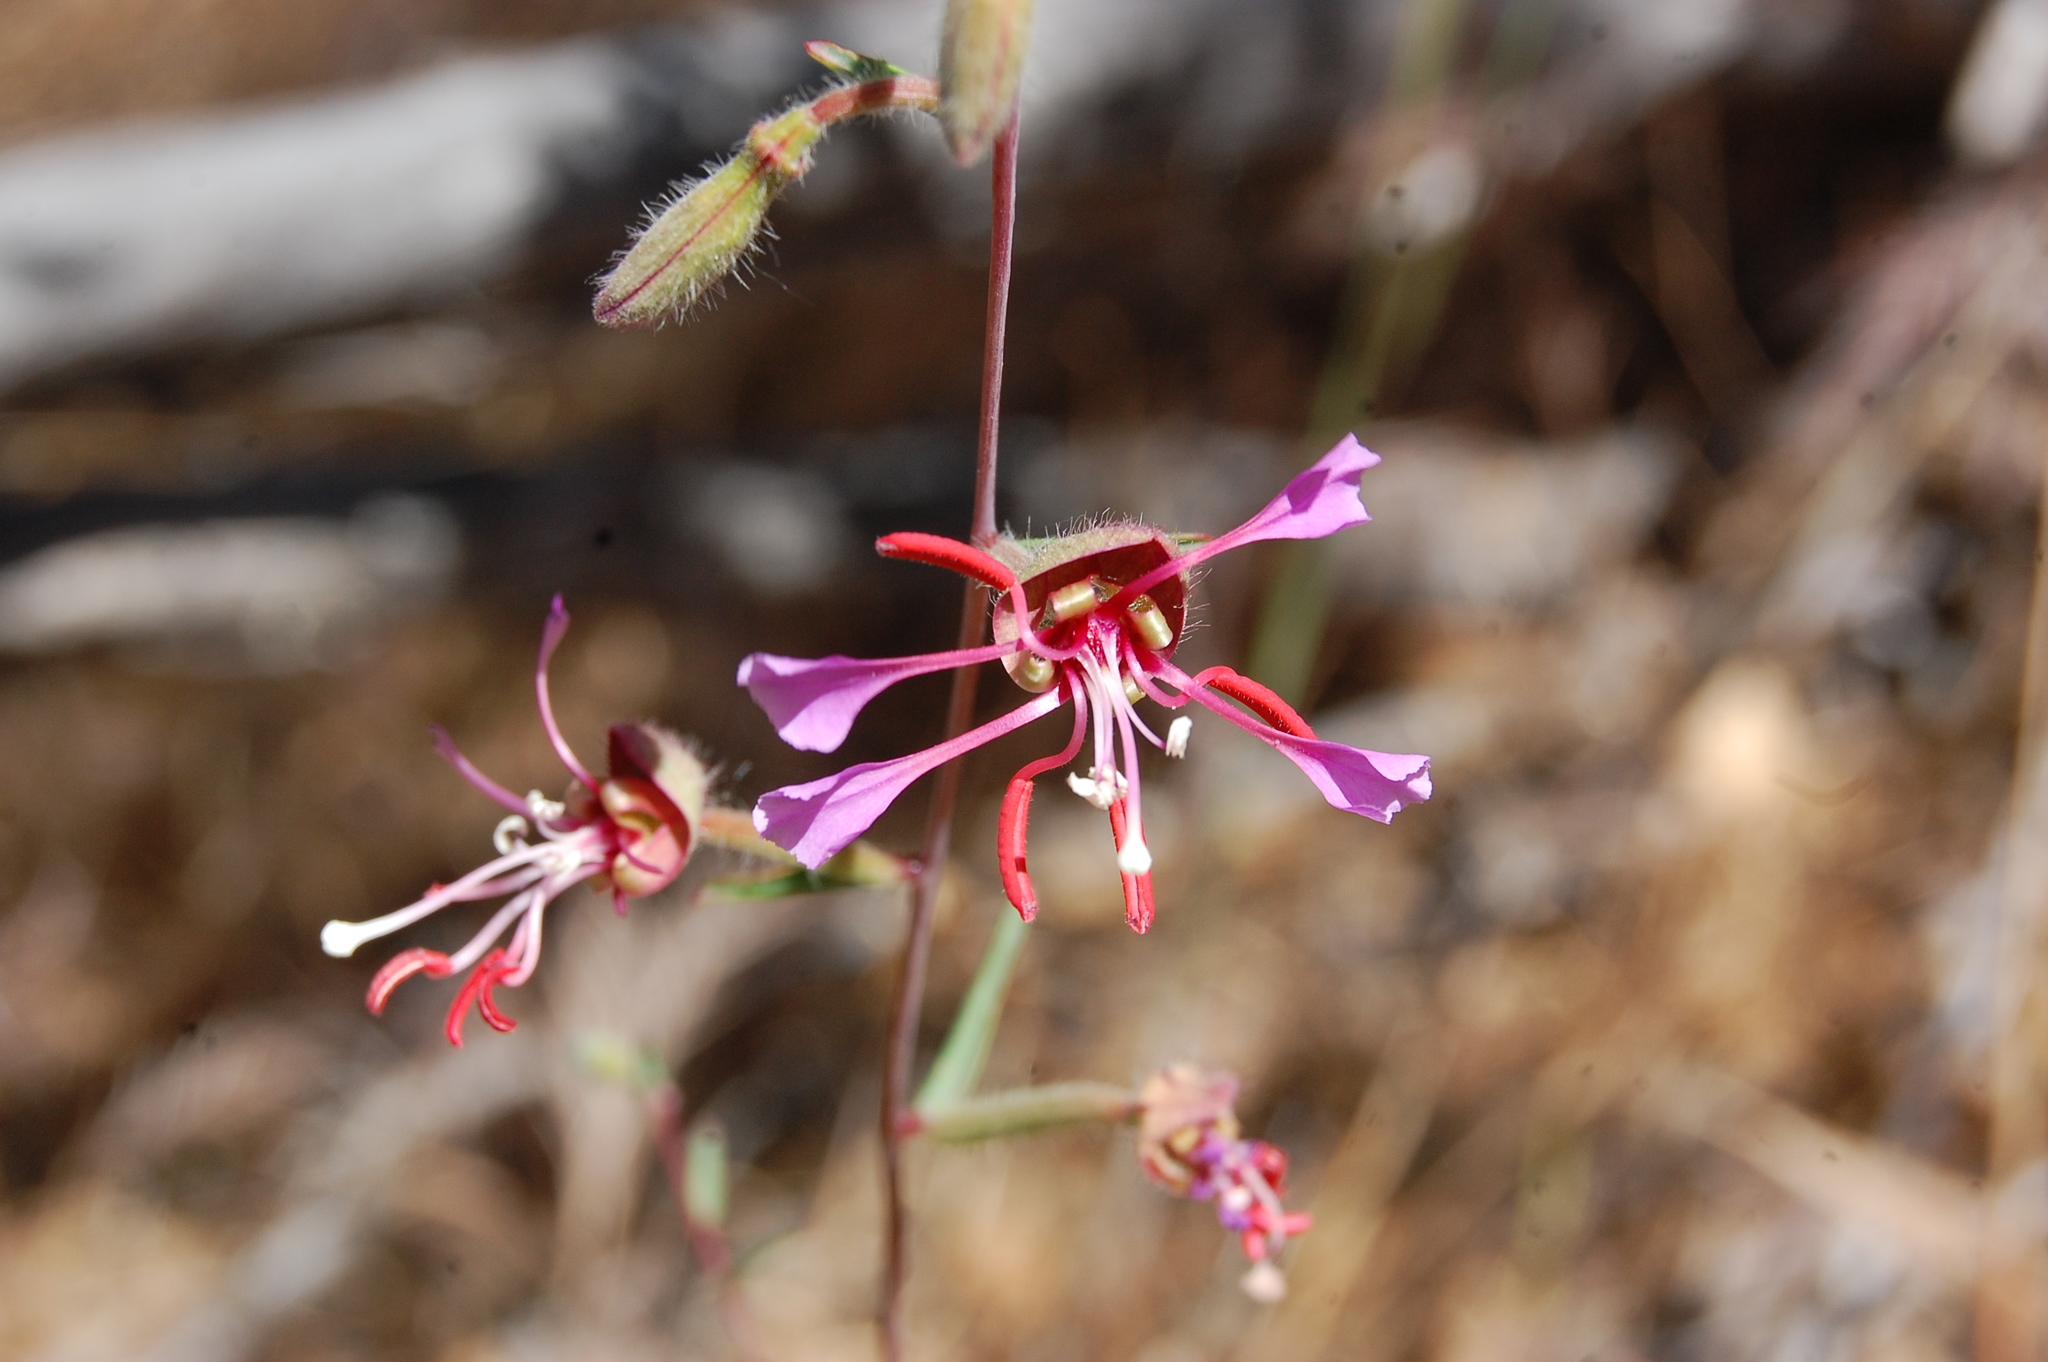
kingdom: Plantae
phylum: Tracheophyta
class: Magnoliopsida
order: Myrtales
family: Onagraceae
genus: Clarkia
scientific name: Clarkia unguiculata
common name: Clarkia
